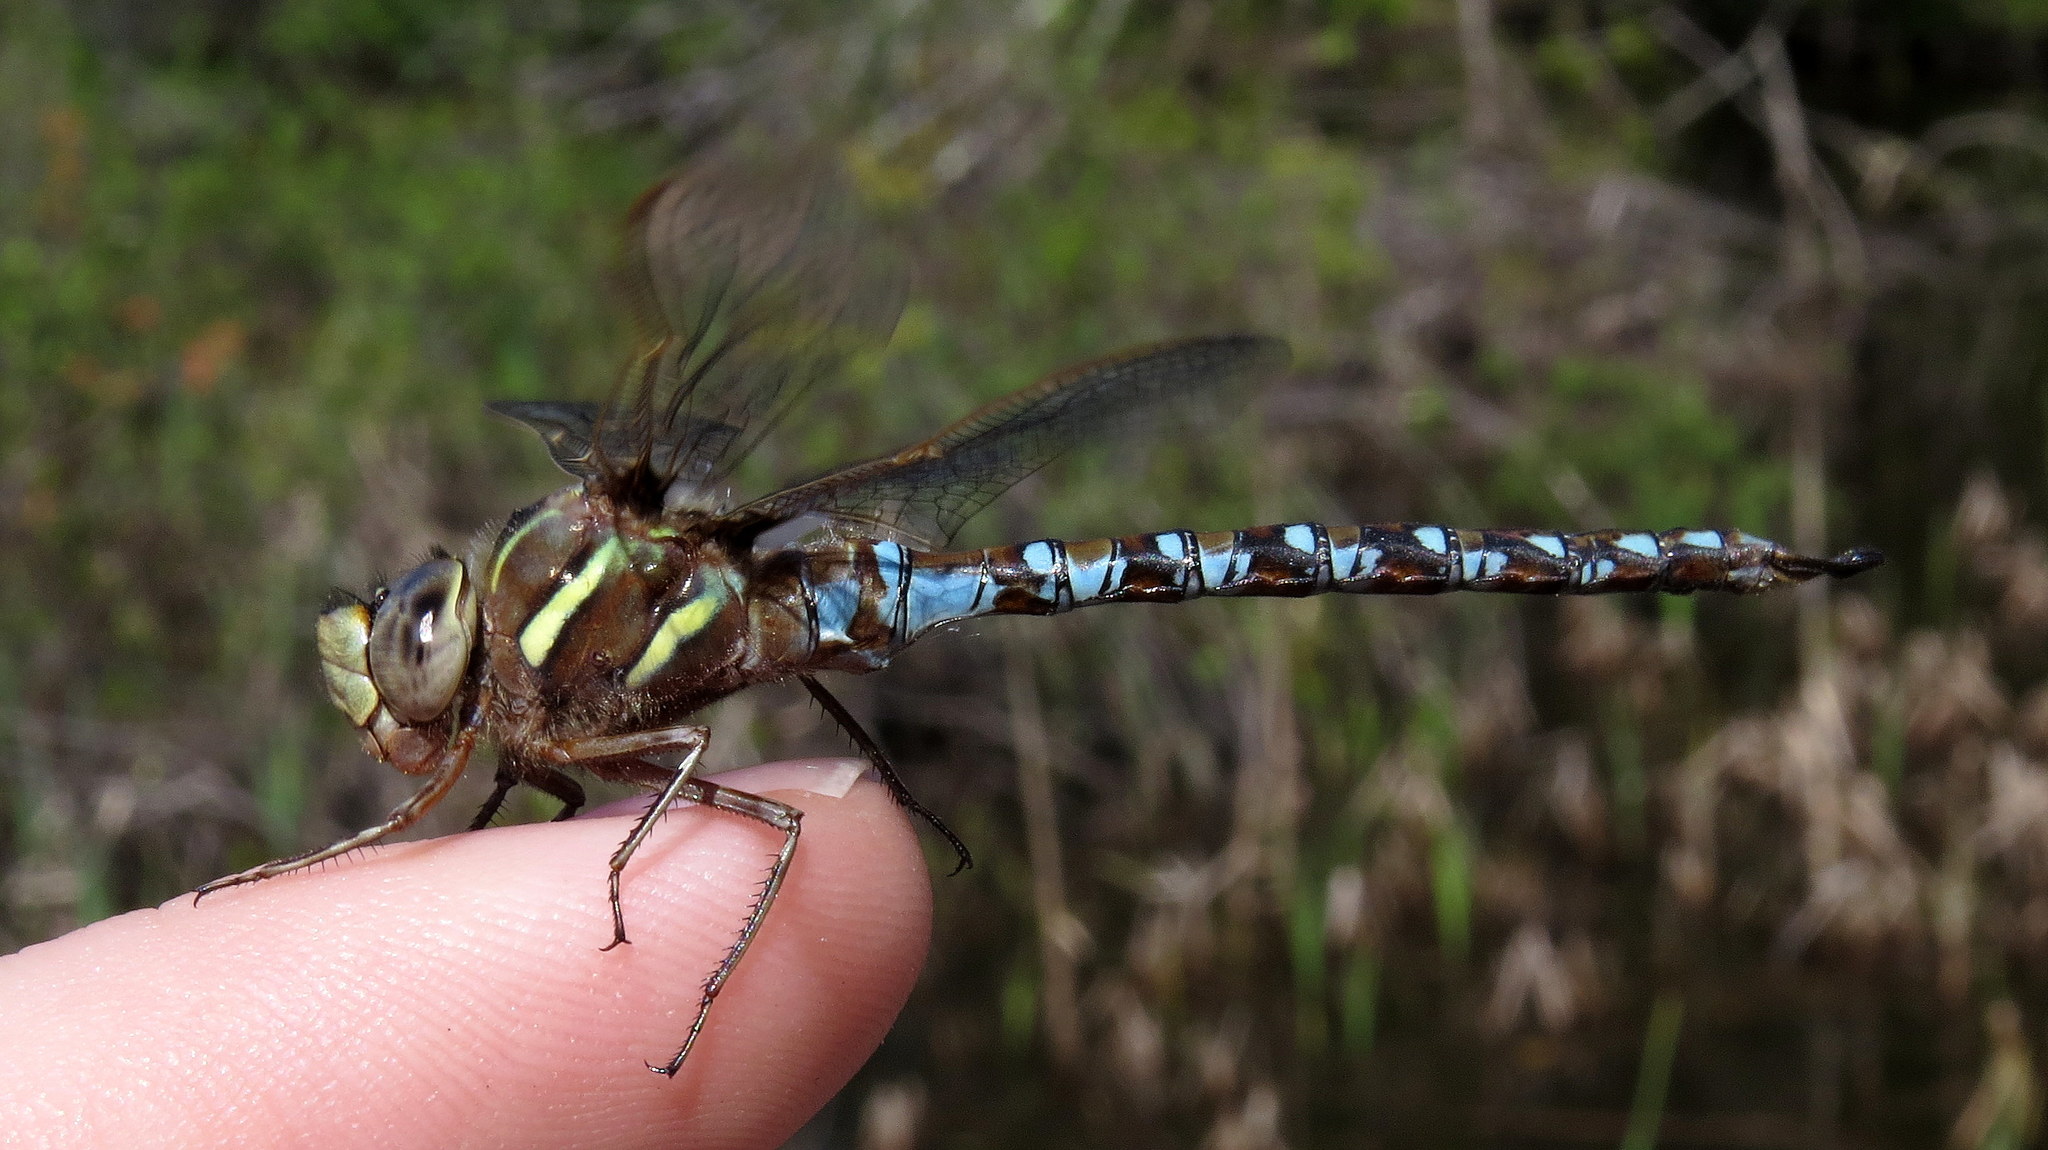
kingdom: Animalia
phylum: Arthropoda
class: Insecta
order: Odonata
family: Aeshnidae
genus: Basiaeschna
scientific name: Basiaeschna janata
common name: Springtime darner
